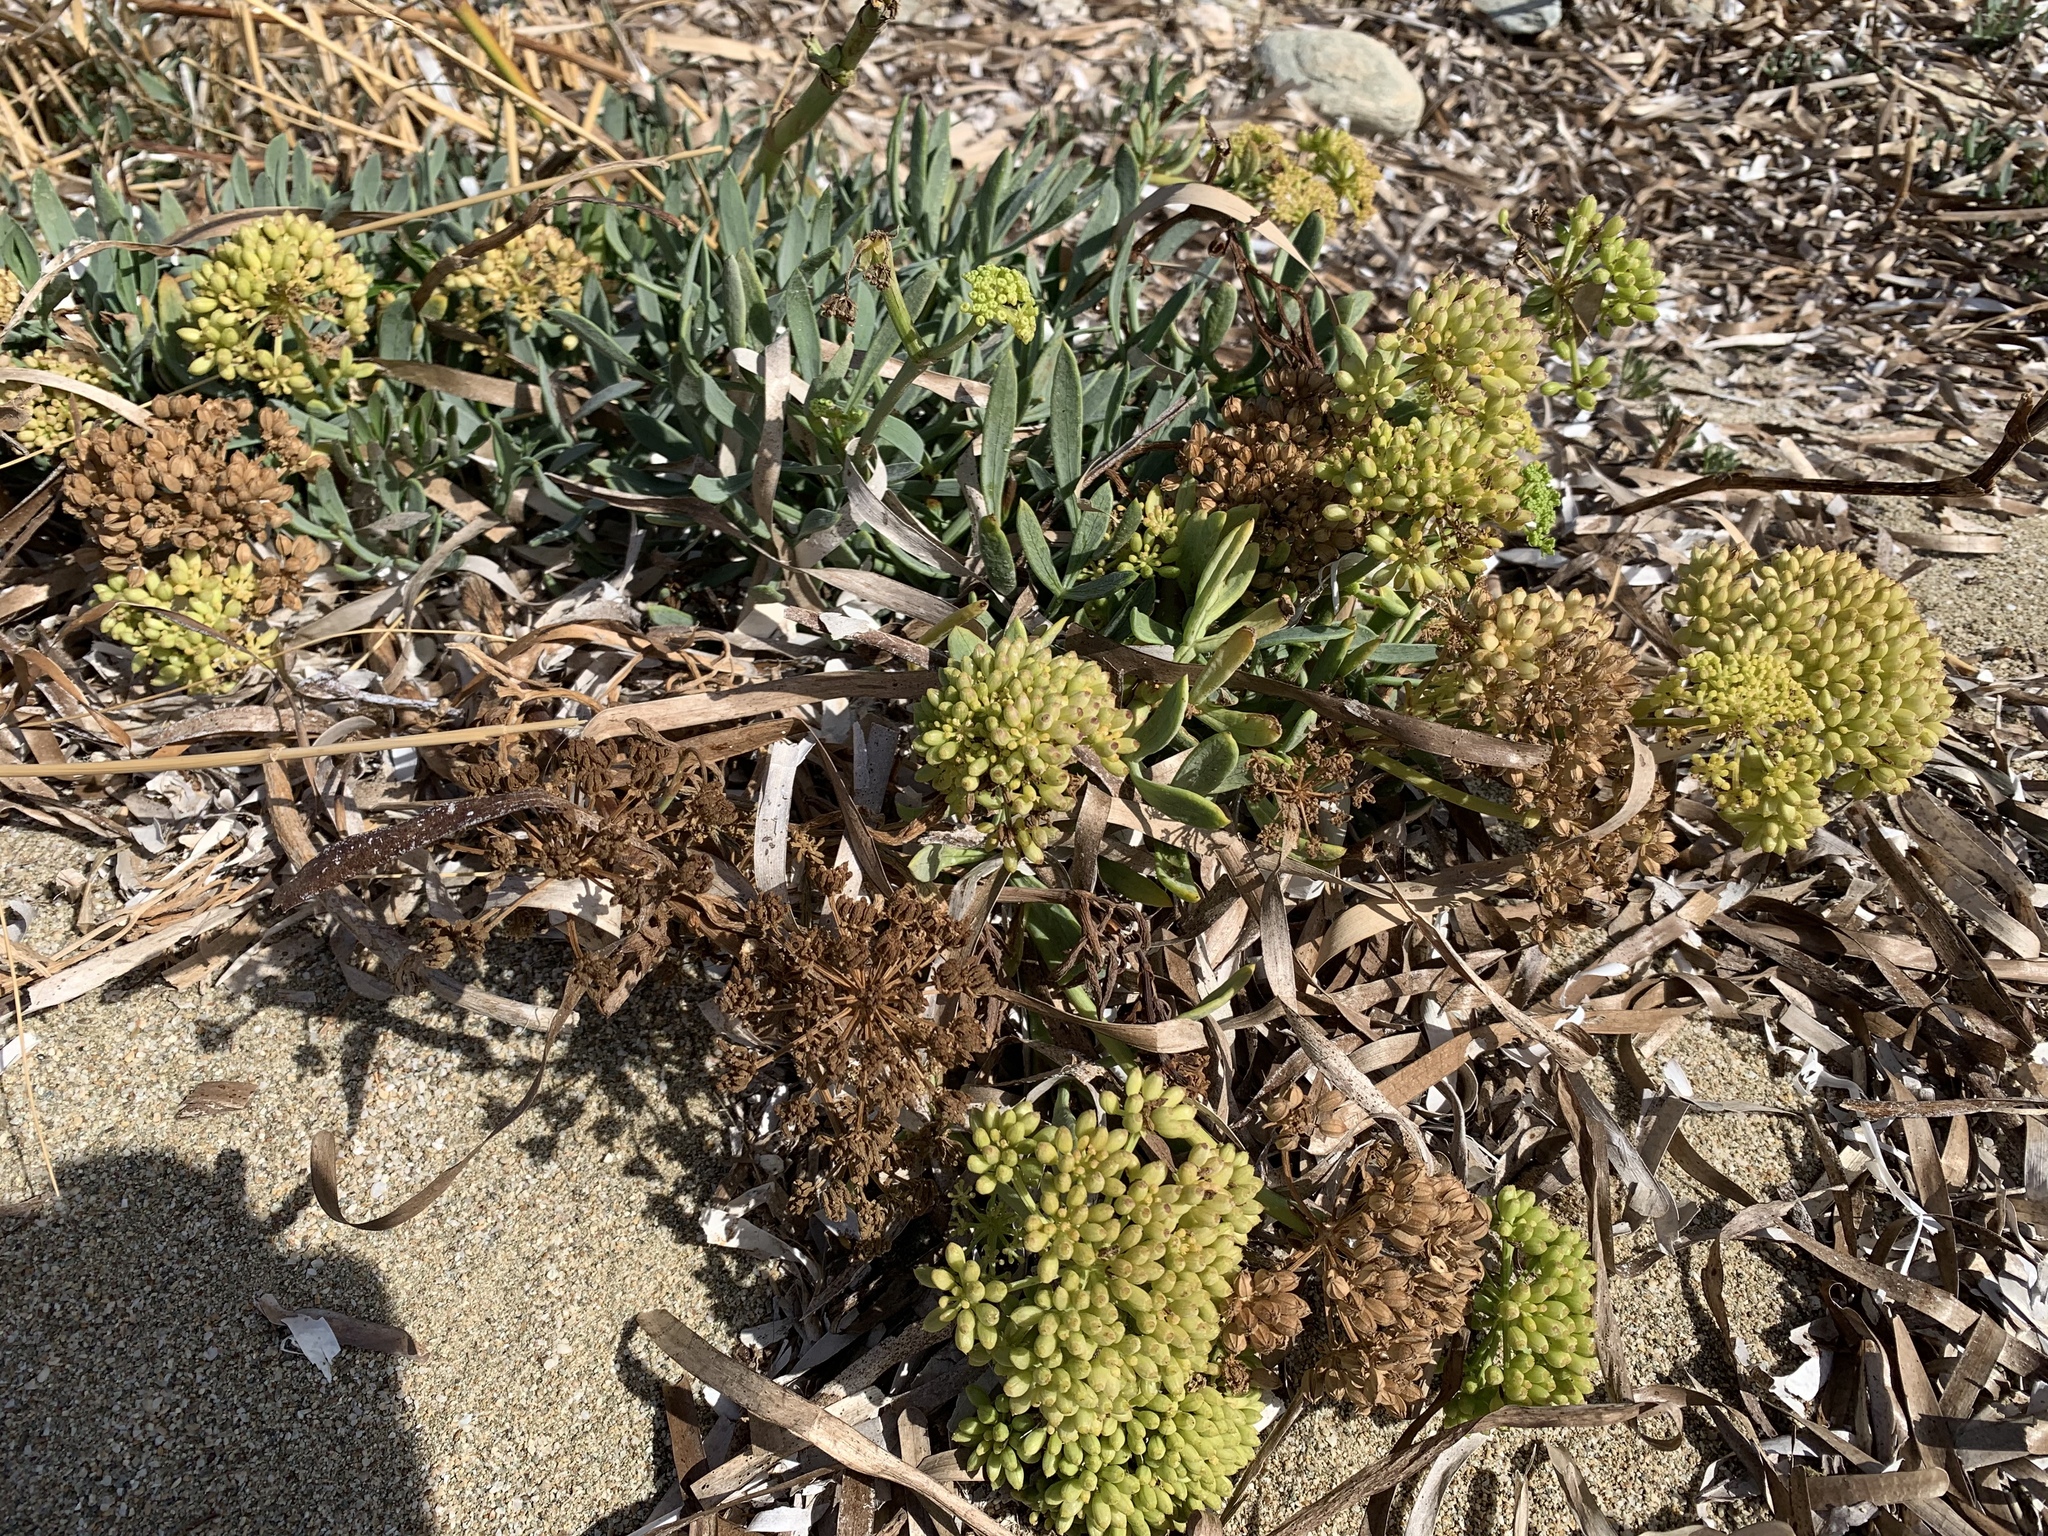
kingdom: Plantae
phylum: Tracheophyta
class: Magnoliopsida
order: Apiales
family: Apiaceae
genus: Crithmum
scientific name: Crithmum maritimum
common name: Rock samphire
